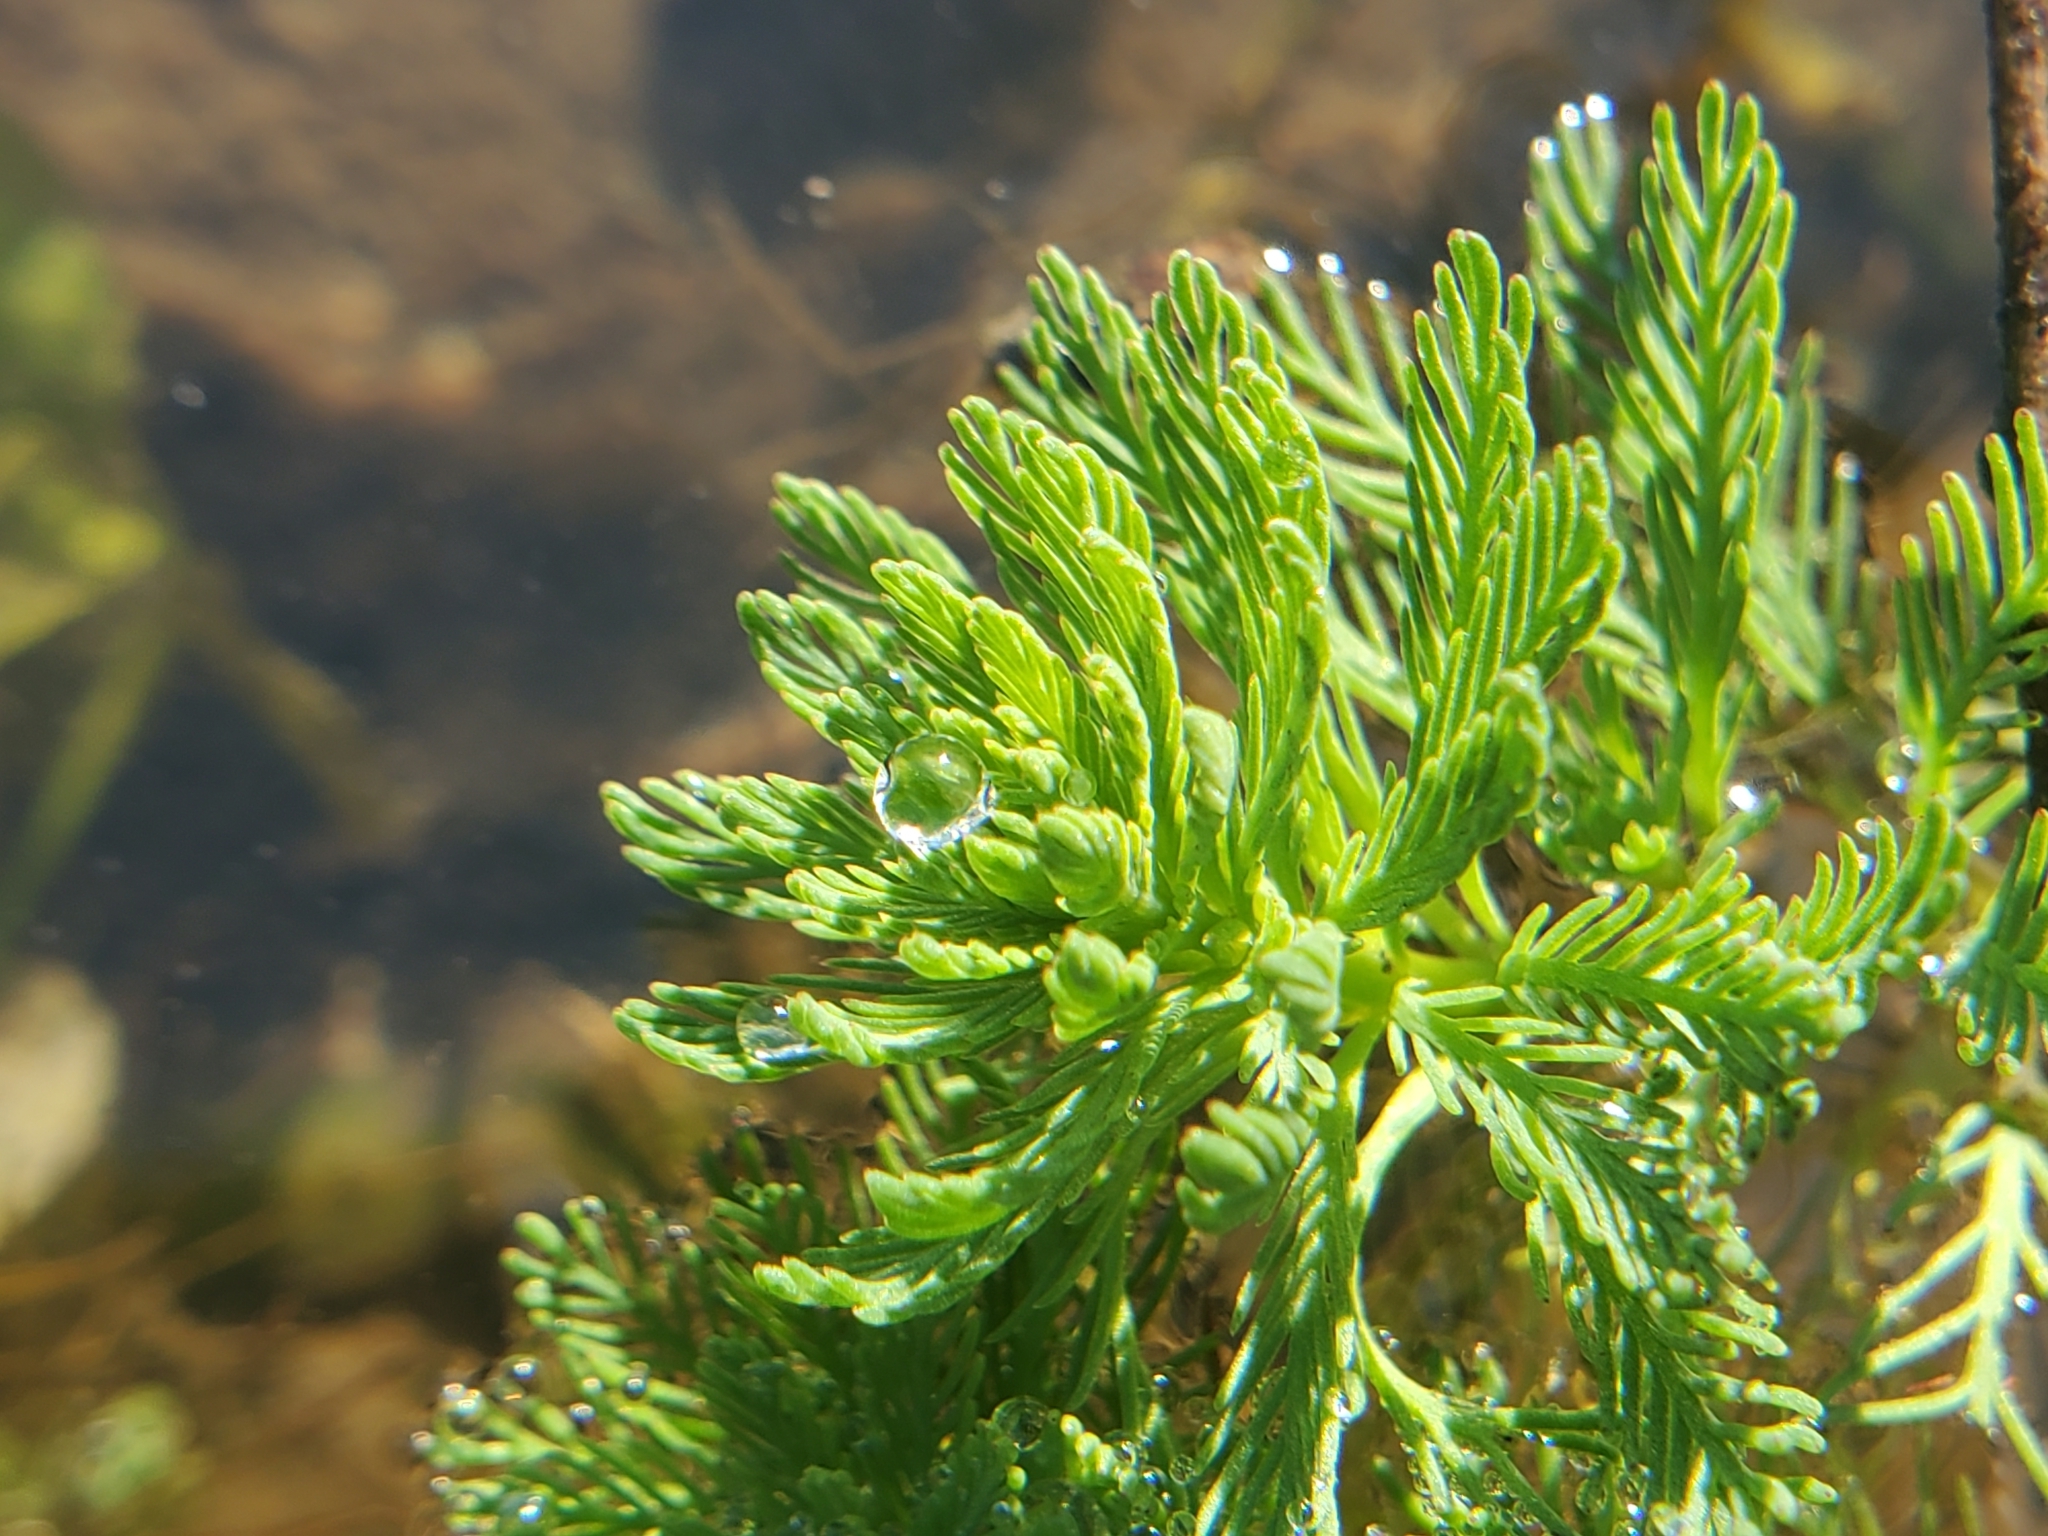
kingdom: Plantae
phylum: Tracheophyta
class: Magnoliopsida
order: Saxifragales
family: Haloragaceae
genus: Myriophyllum
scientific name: Myriophyllum aquaticum
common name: Parrot's feather
